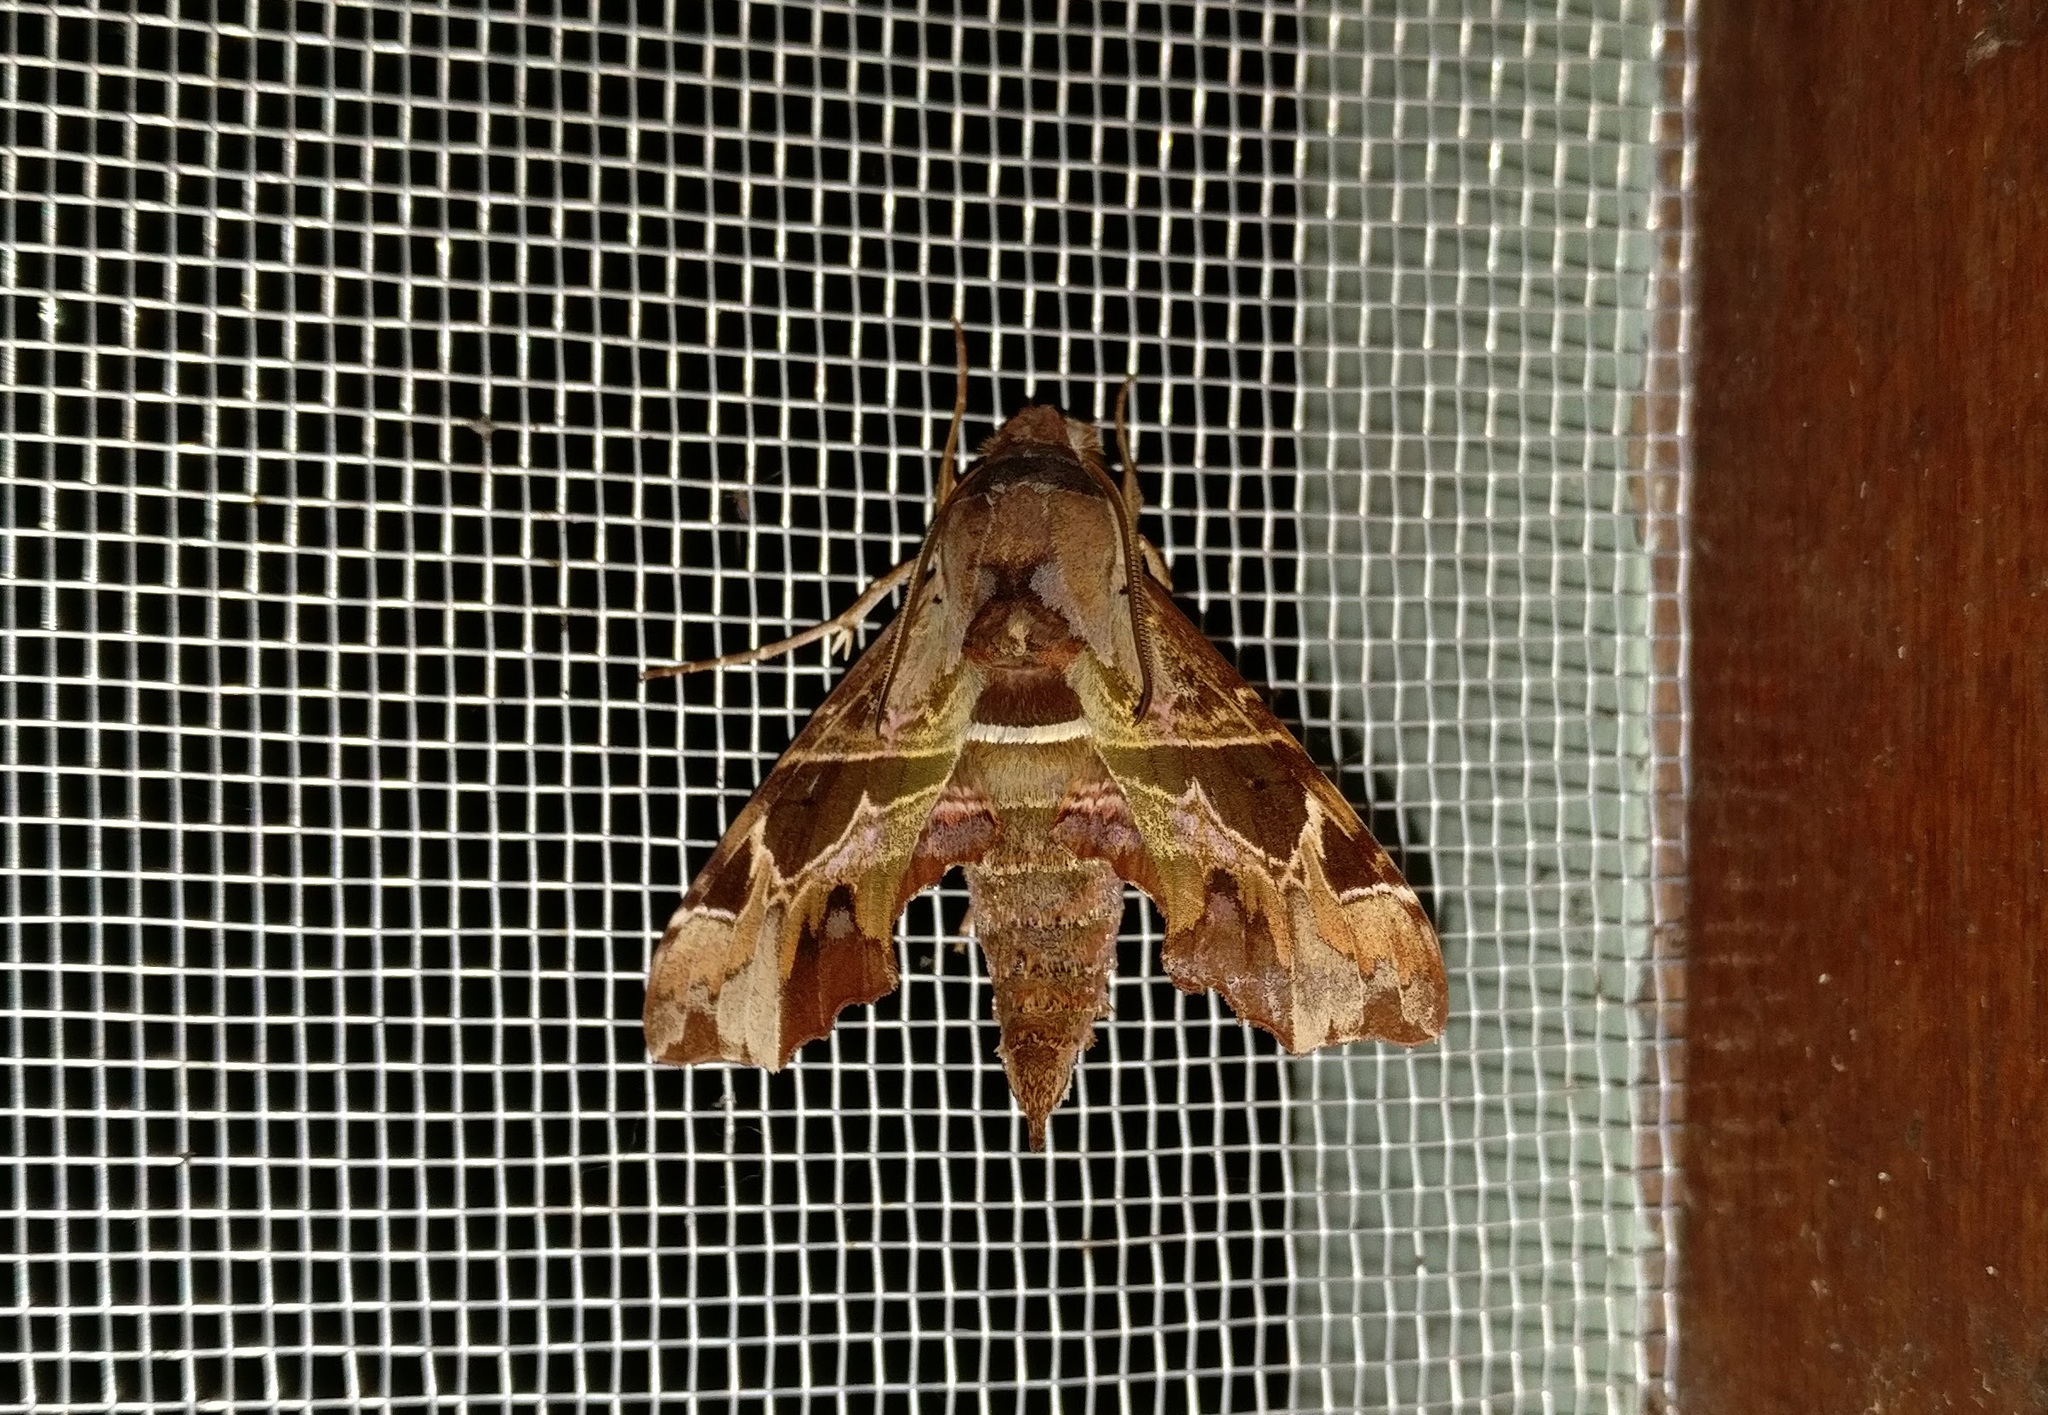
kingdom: Animalia
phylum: Arthropoda
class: Insecta
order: Lepidoptera
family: Sphingidae
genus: Unzela
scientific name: Unzela japix
